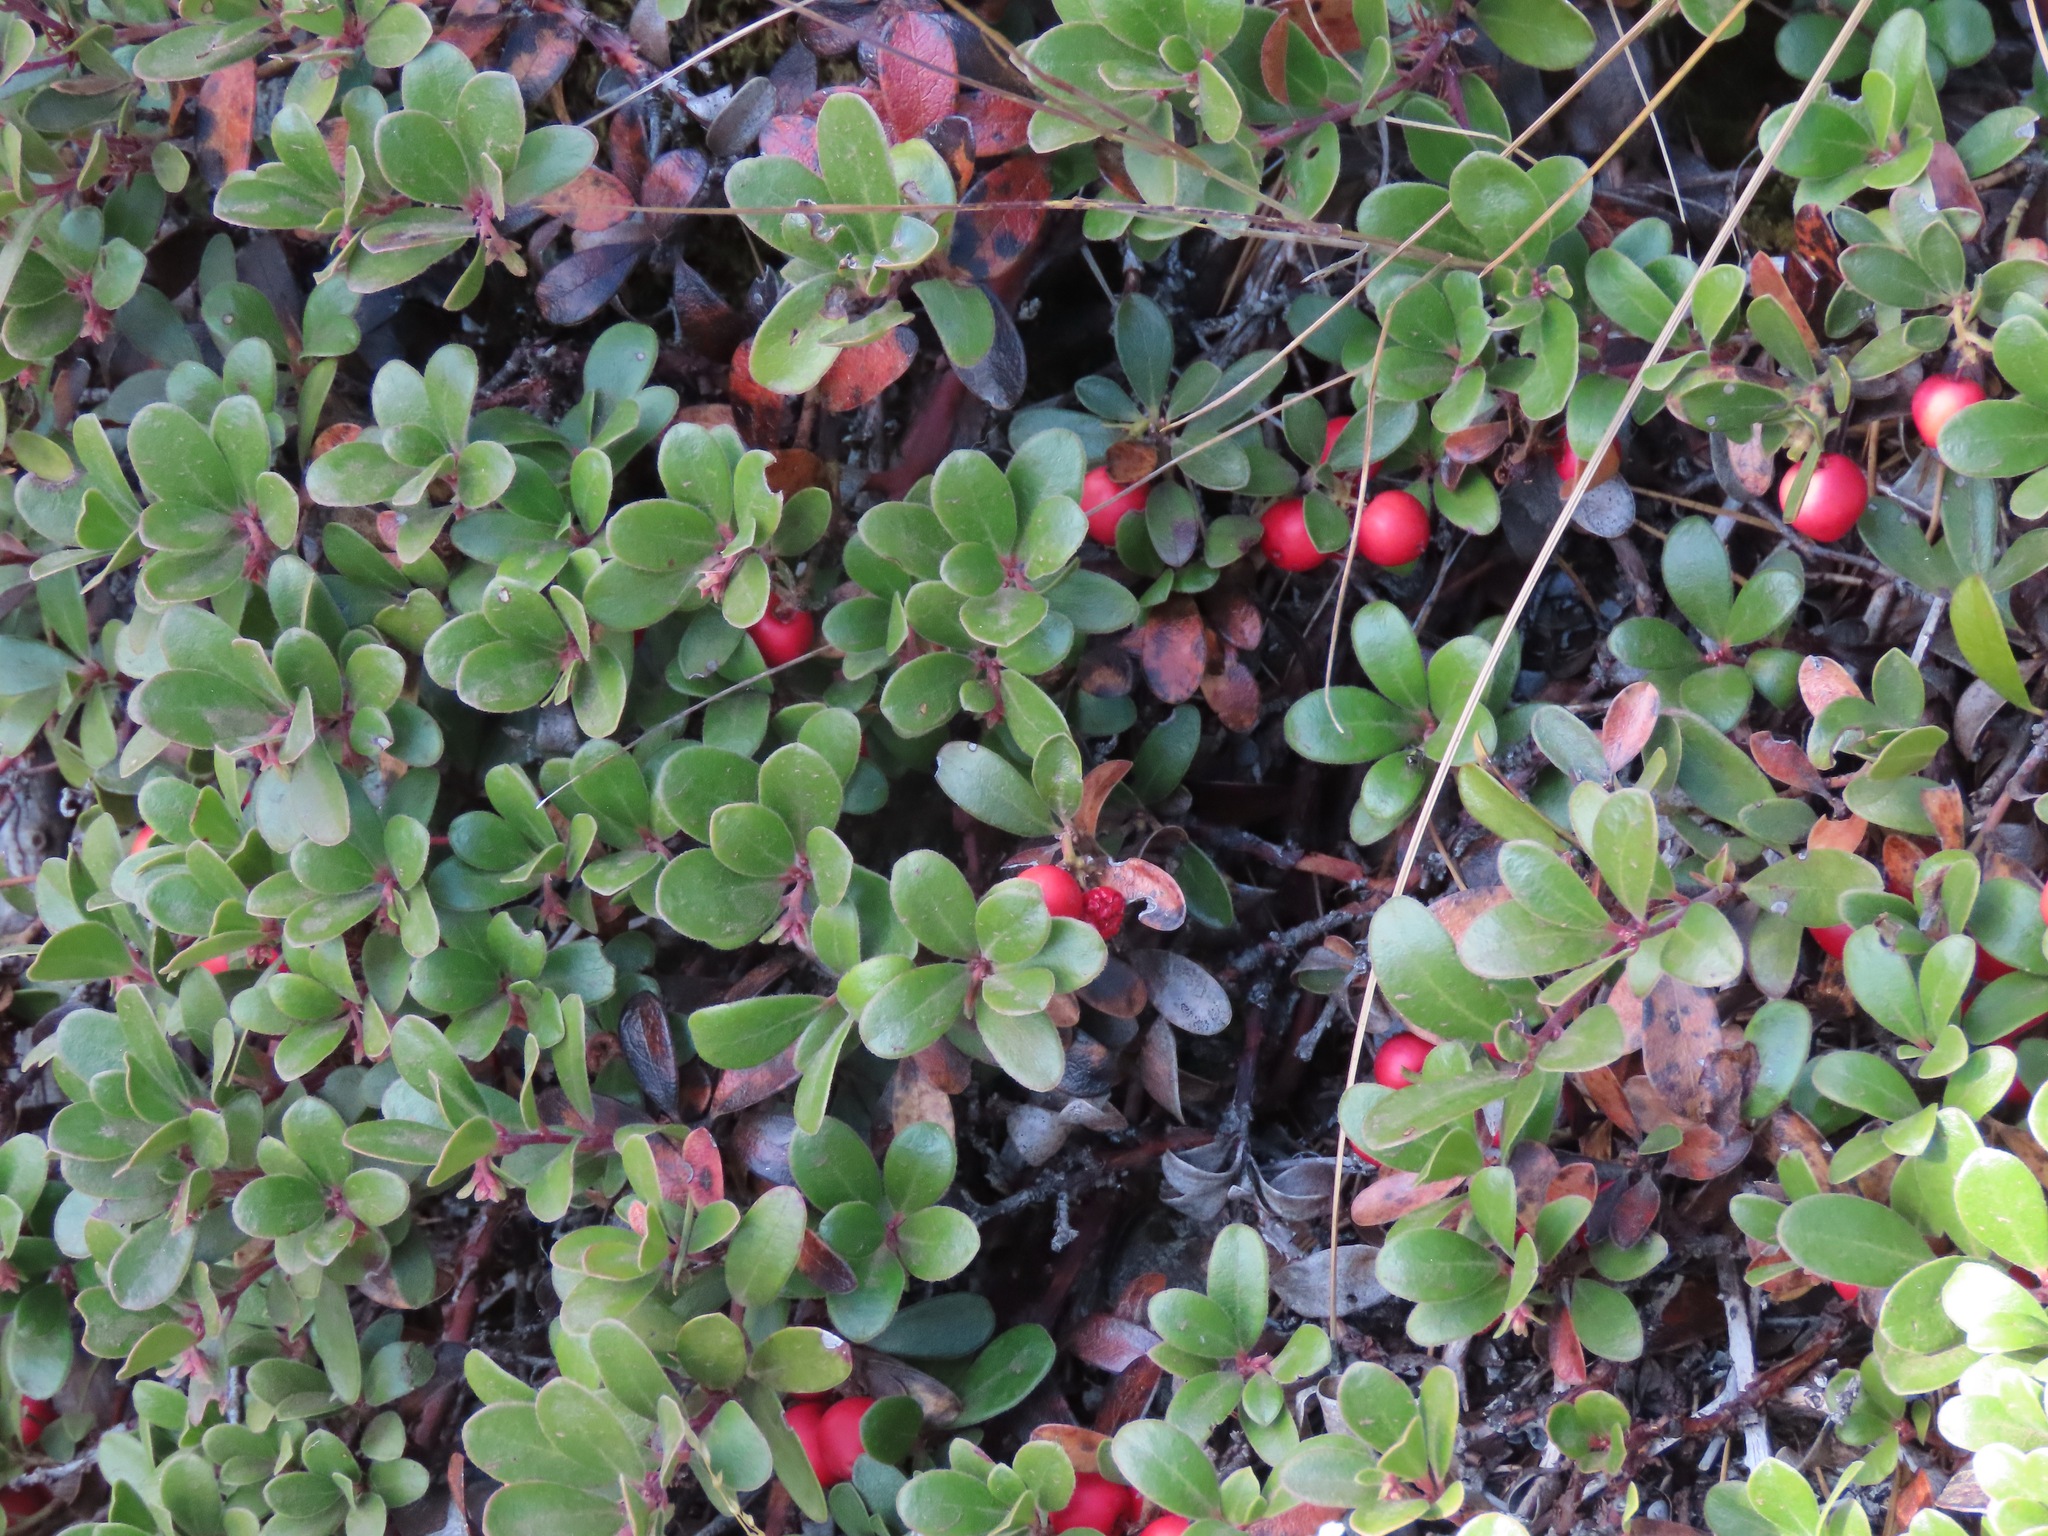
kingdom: Plantae
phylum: Tracheophyta
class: Magnoliopsida
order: Ericales
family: Ericaceae
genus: Arctostaphylos
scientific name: Arctostaphylos uva-ursi
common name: Bearberry
